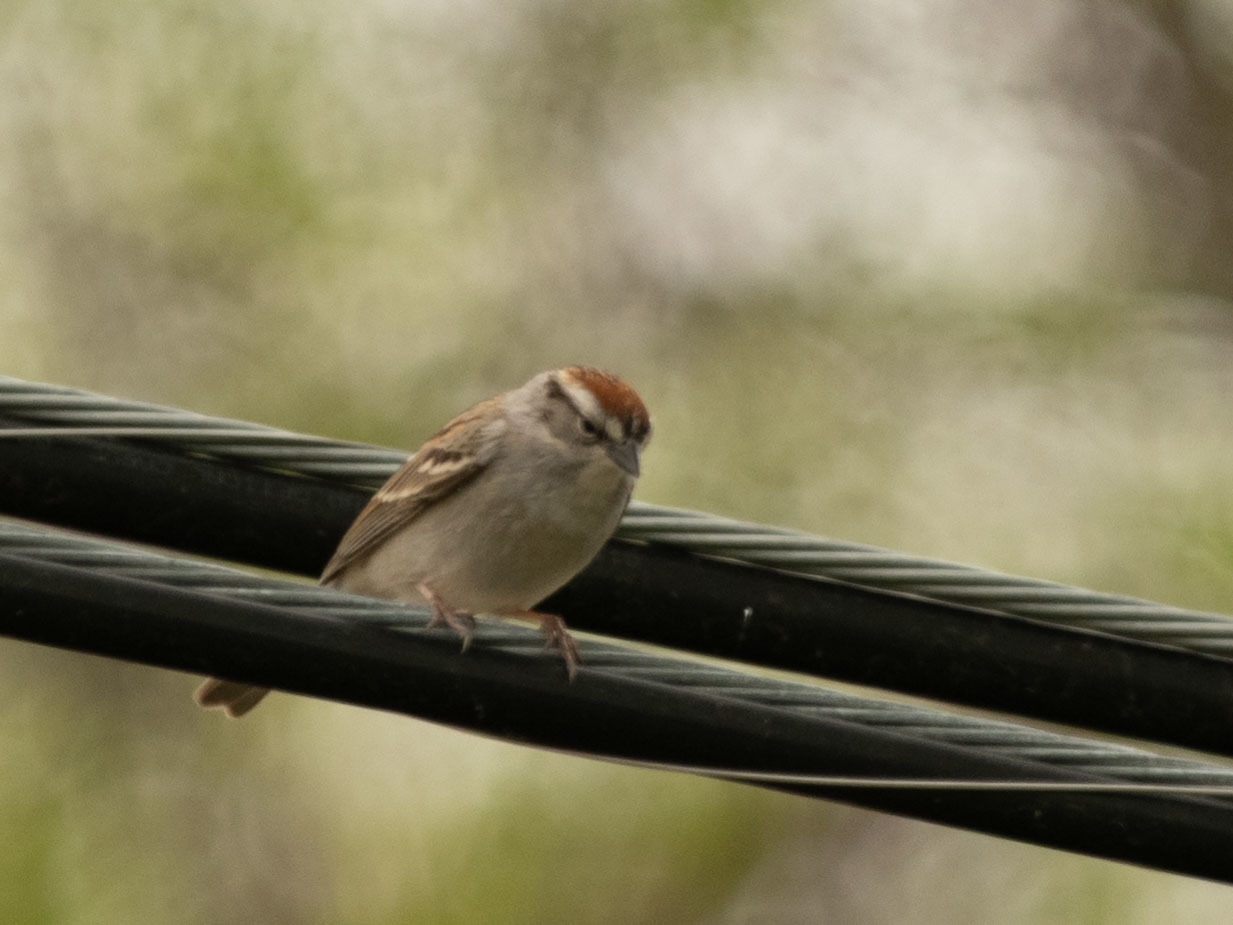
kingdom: Animalia
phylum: Chordata
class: Aves
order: Passeriformes
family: Passerellidae
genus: Spizella
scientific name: Spizella passerina
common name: Chipping sparrow
